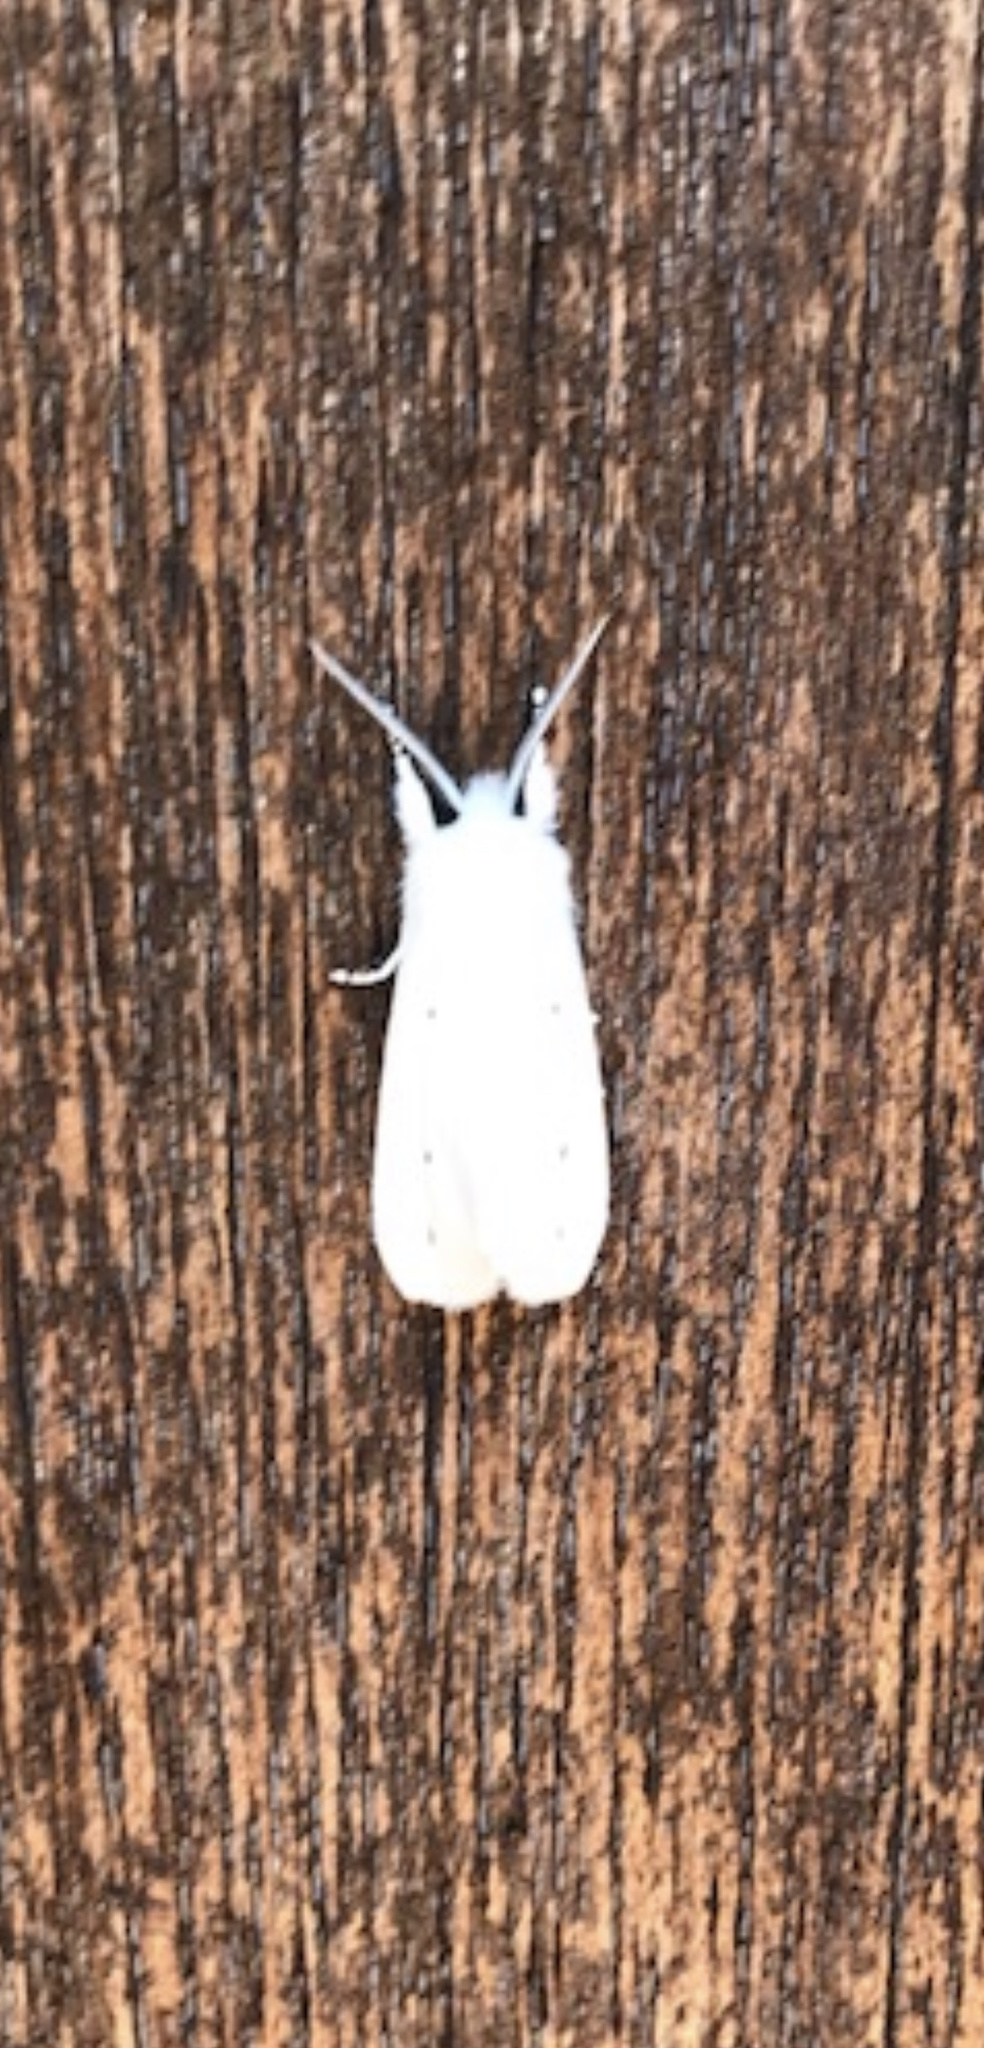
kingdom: Animalia
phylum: Arthropoda
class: Insecta
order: Lepidoptera
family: Erebidae
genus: Spilosoma
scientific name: Spilosoma virginica
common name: Virginia tiger moth
